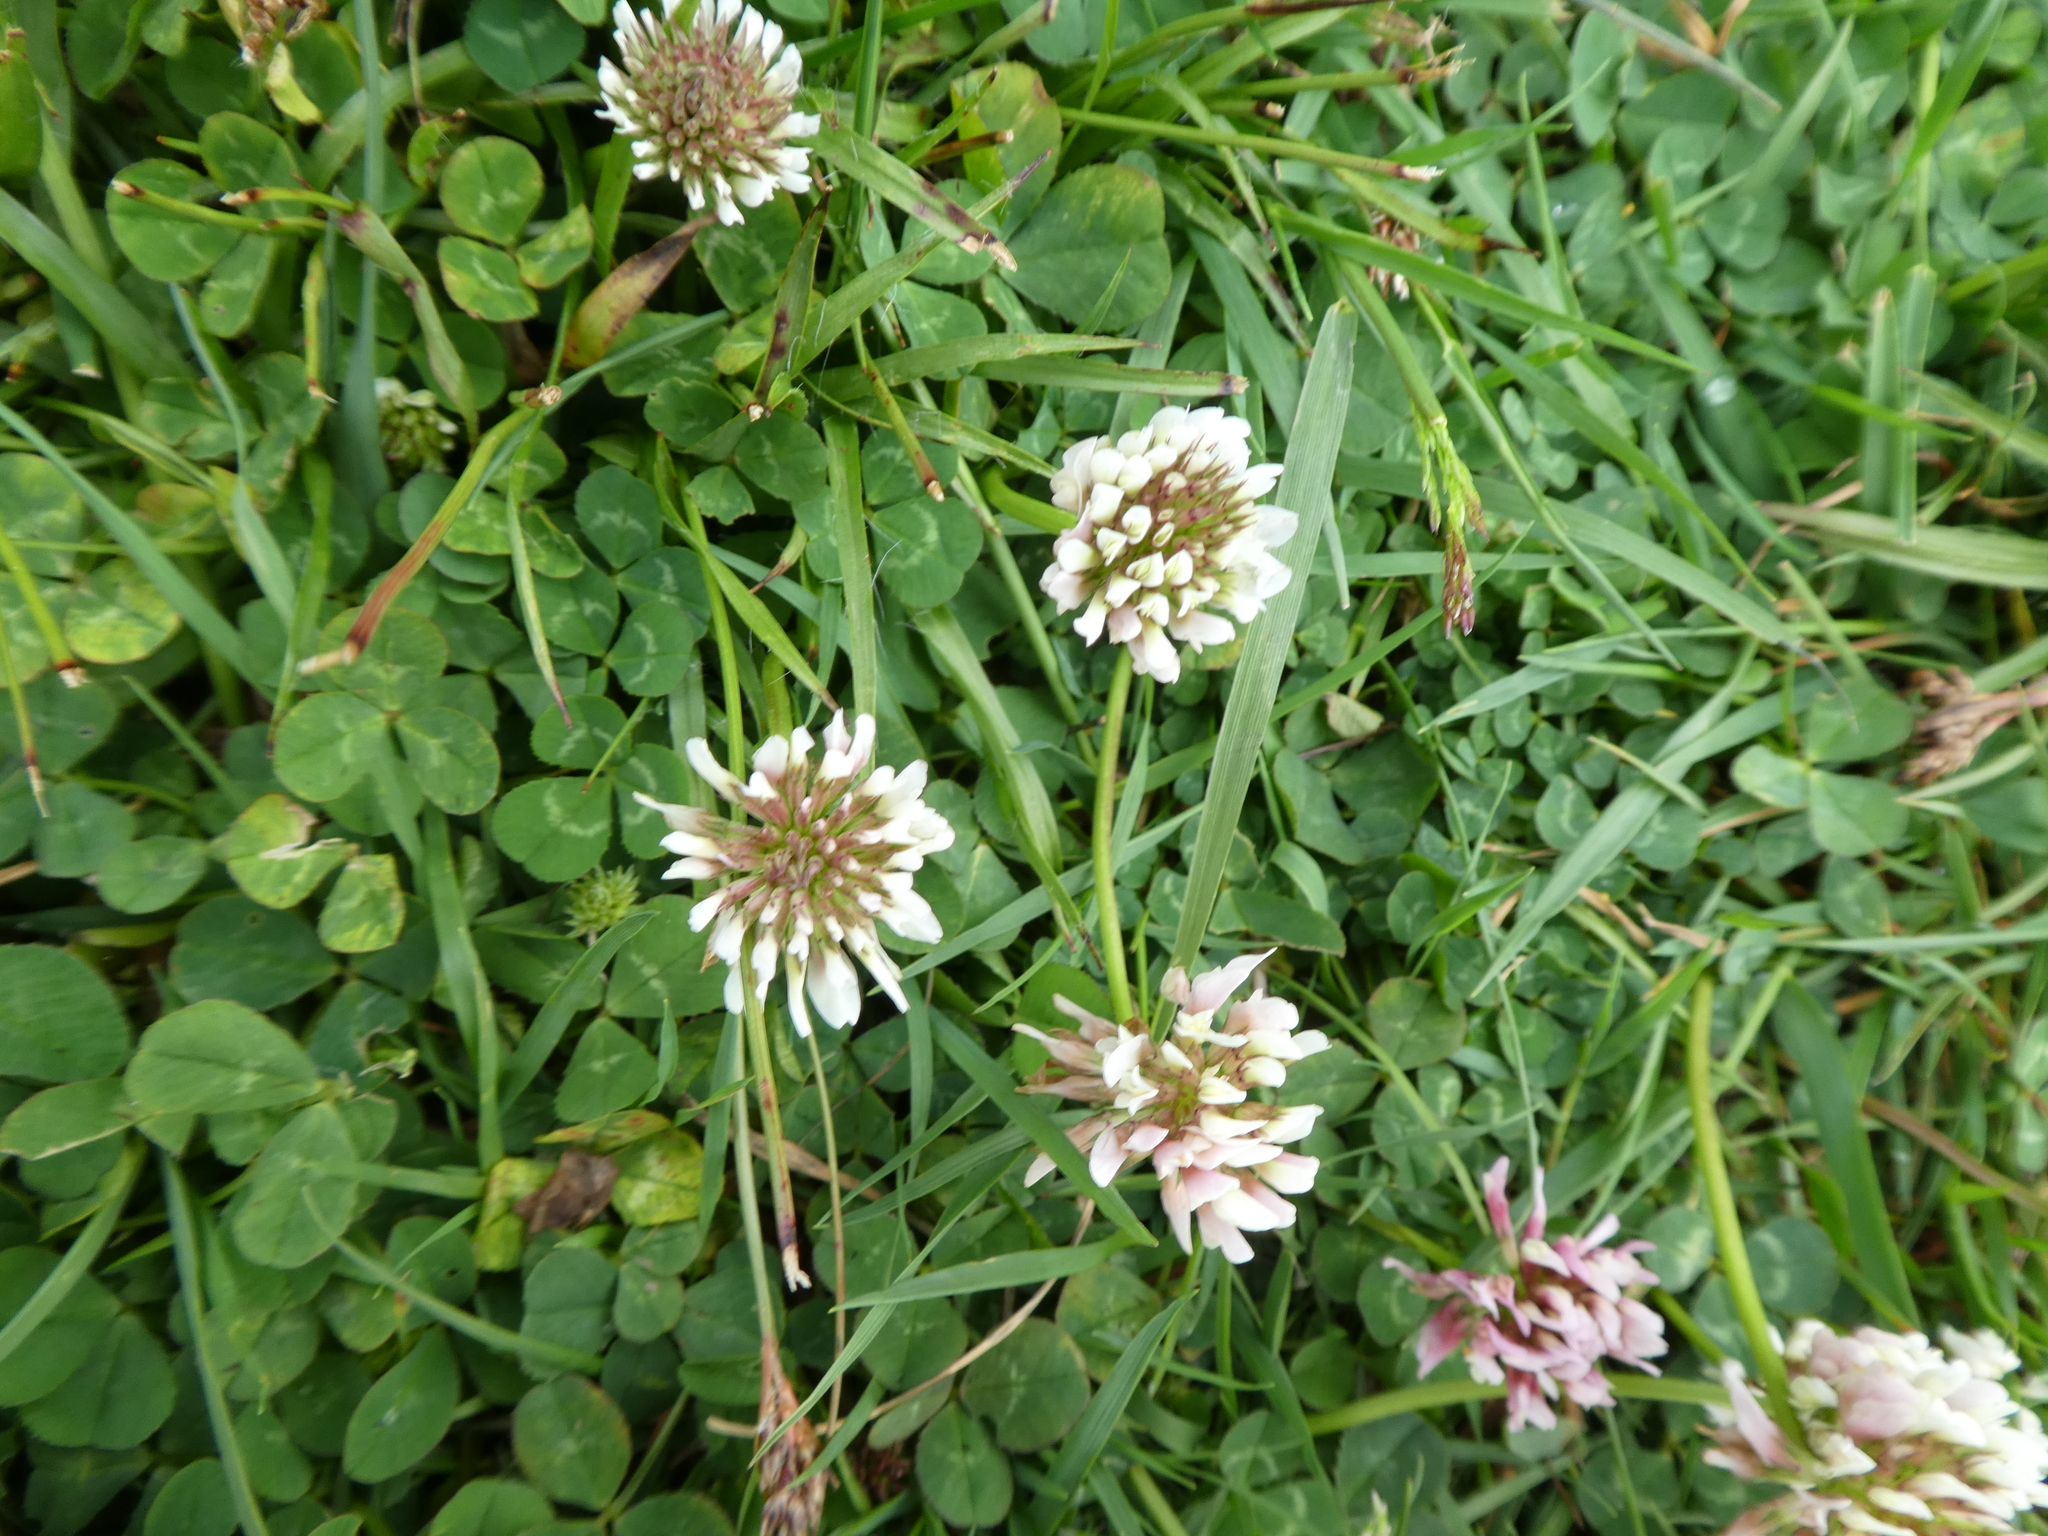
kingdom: Plantae
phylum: Tracheophyta
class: Magnoliopsida
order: Fabales
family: Fabaceae
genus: Trifolium
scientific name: Trifolium repens
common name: White clover
